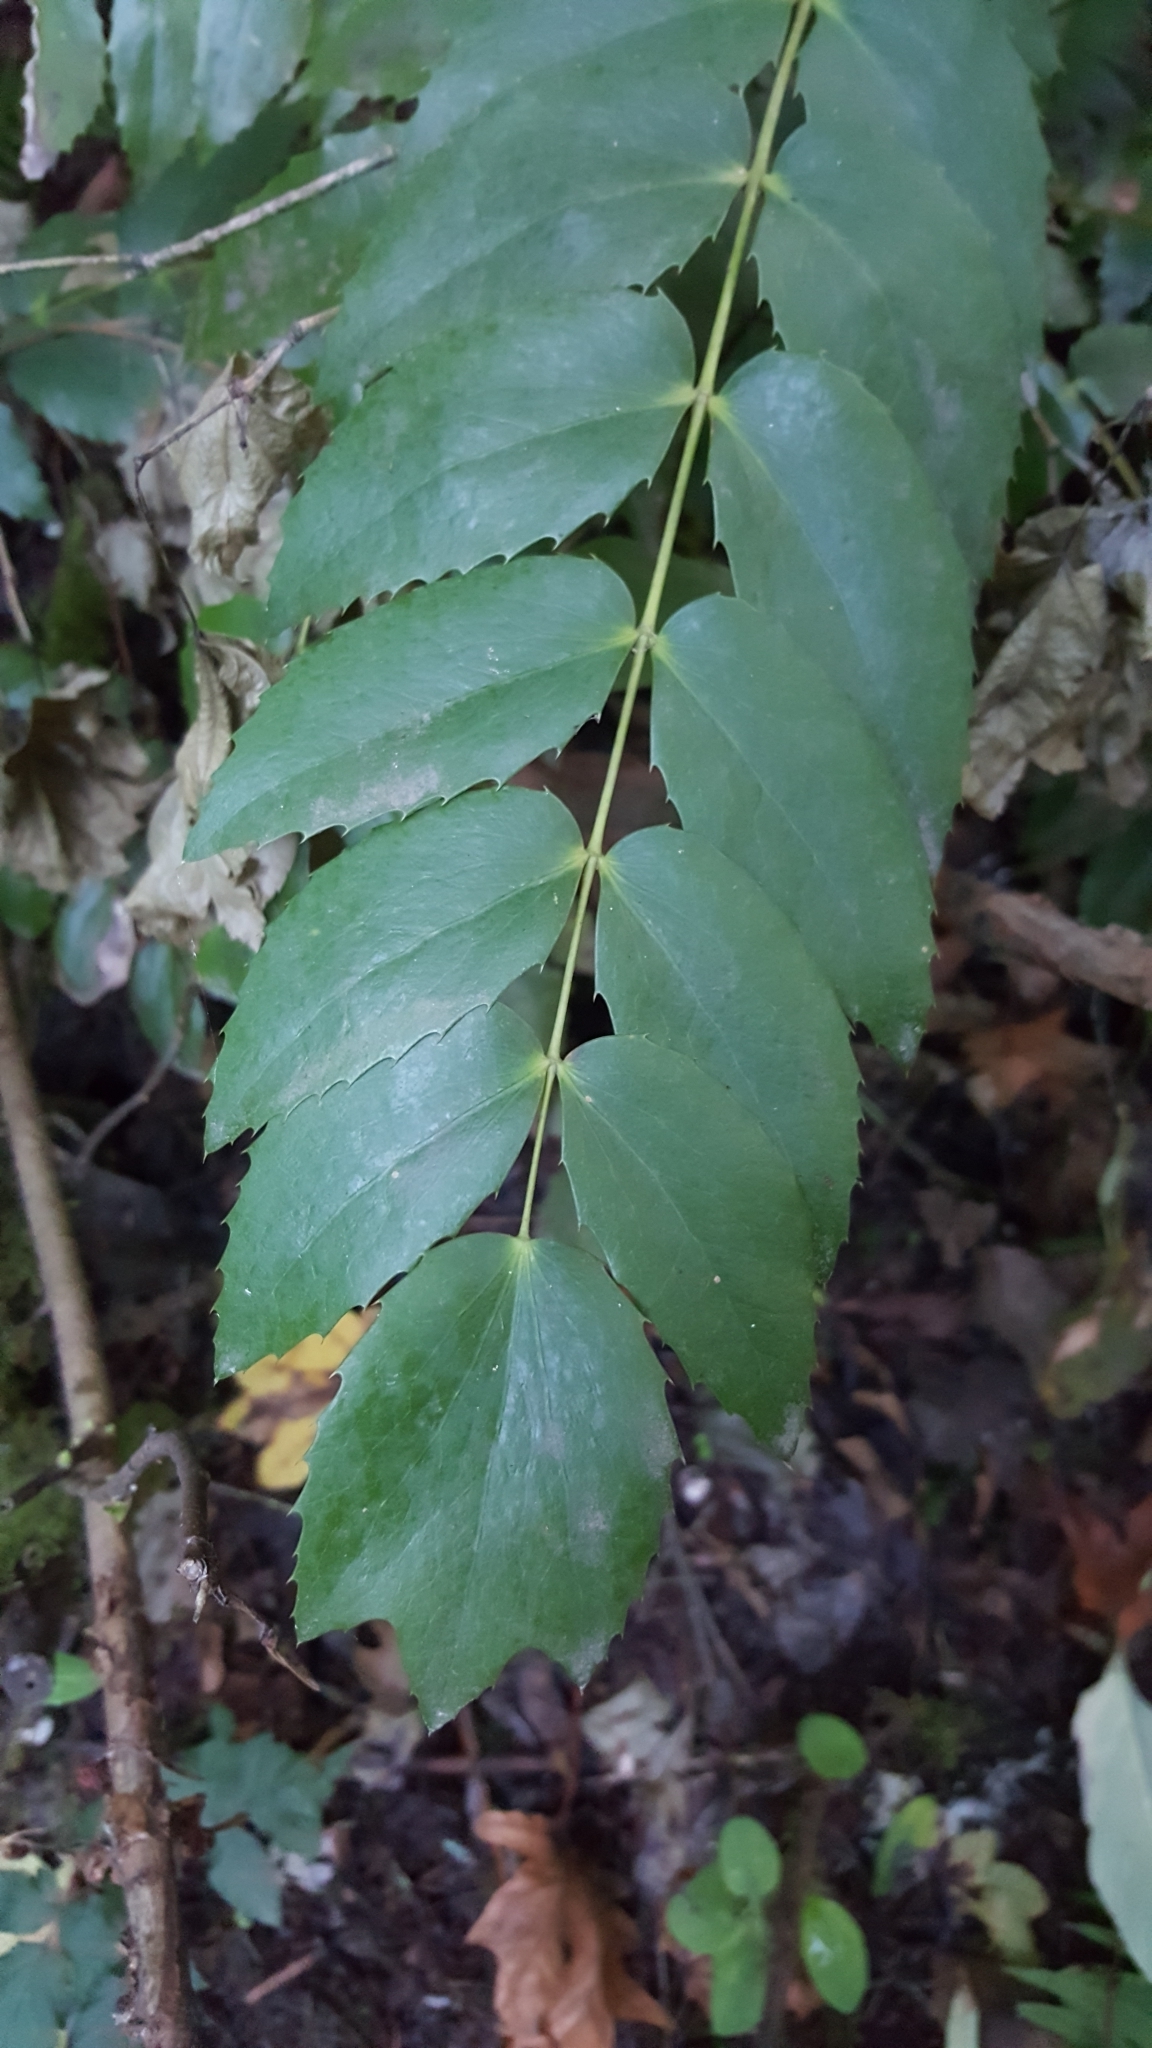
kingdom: Plantae
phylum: Tracheophyta
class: Magnoliopsida
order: Ranunculales
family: Berberidaceae
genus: Mahonia
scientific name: Mahonia nervosa
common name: Cascade oregon-grape
